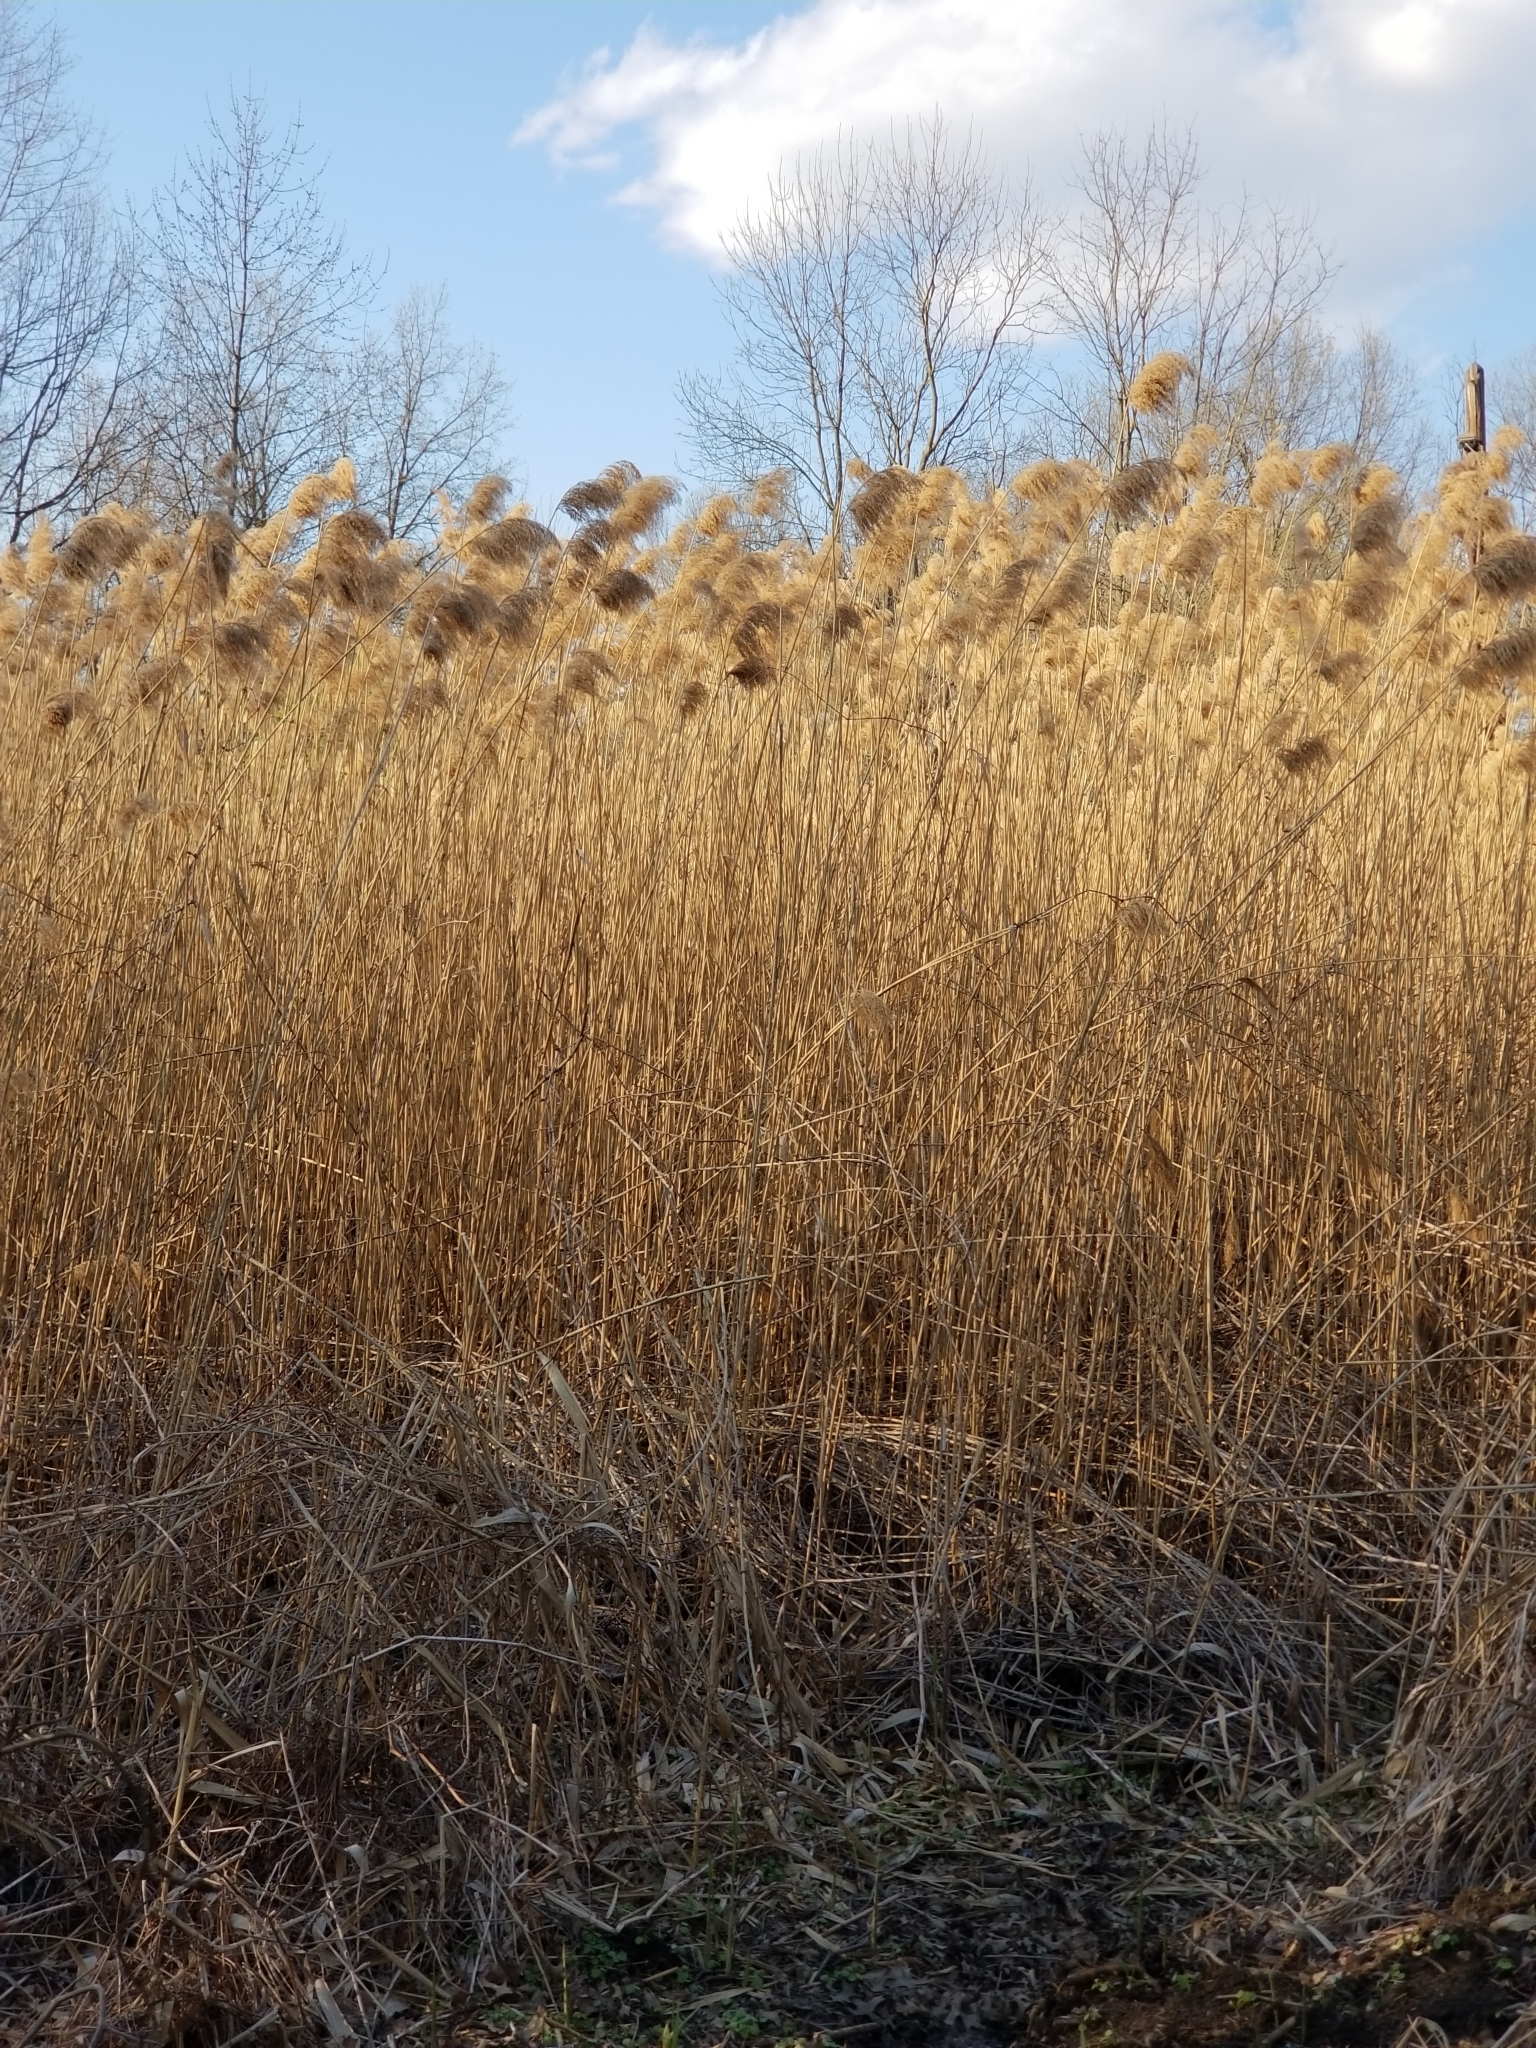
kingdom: Plantae
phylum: Tracheophyta
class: Liliopsida
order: Poales
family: Poaceae
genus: Phragmites
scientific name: Phragmites australis
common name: Common reed
